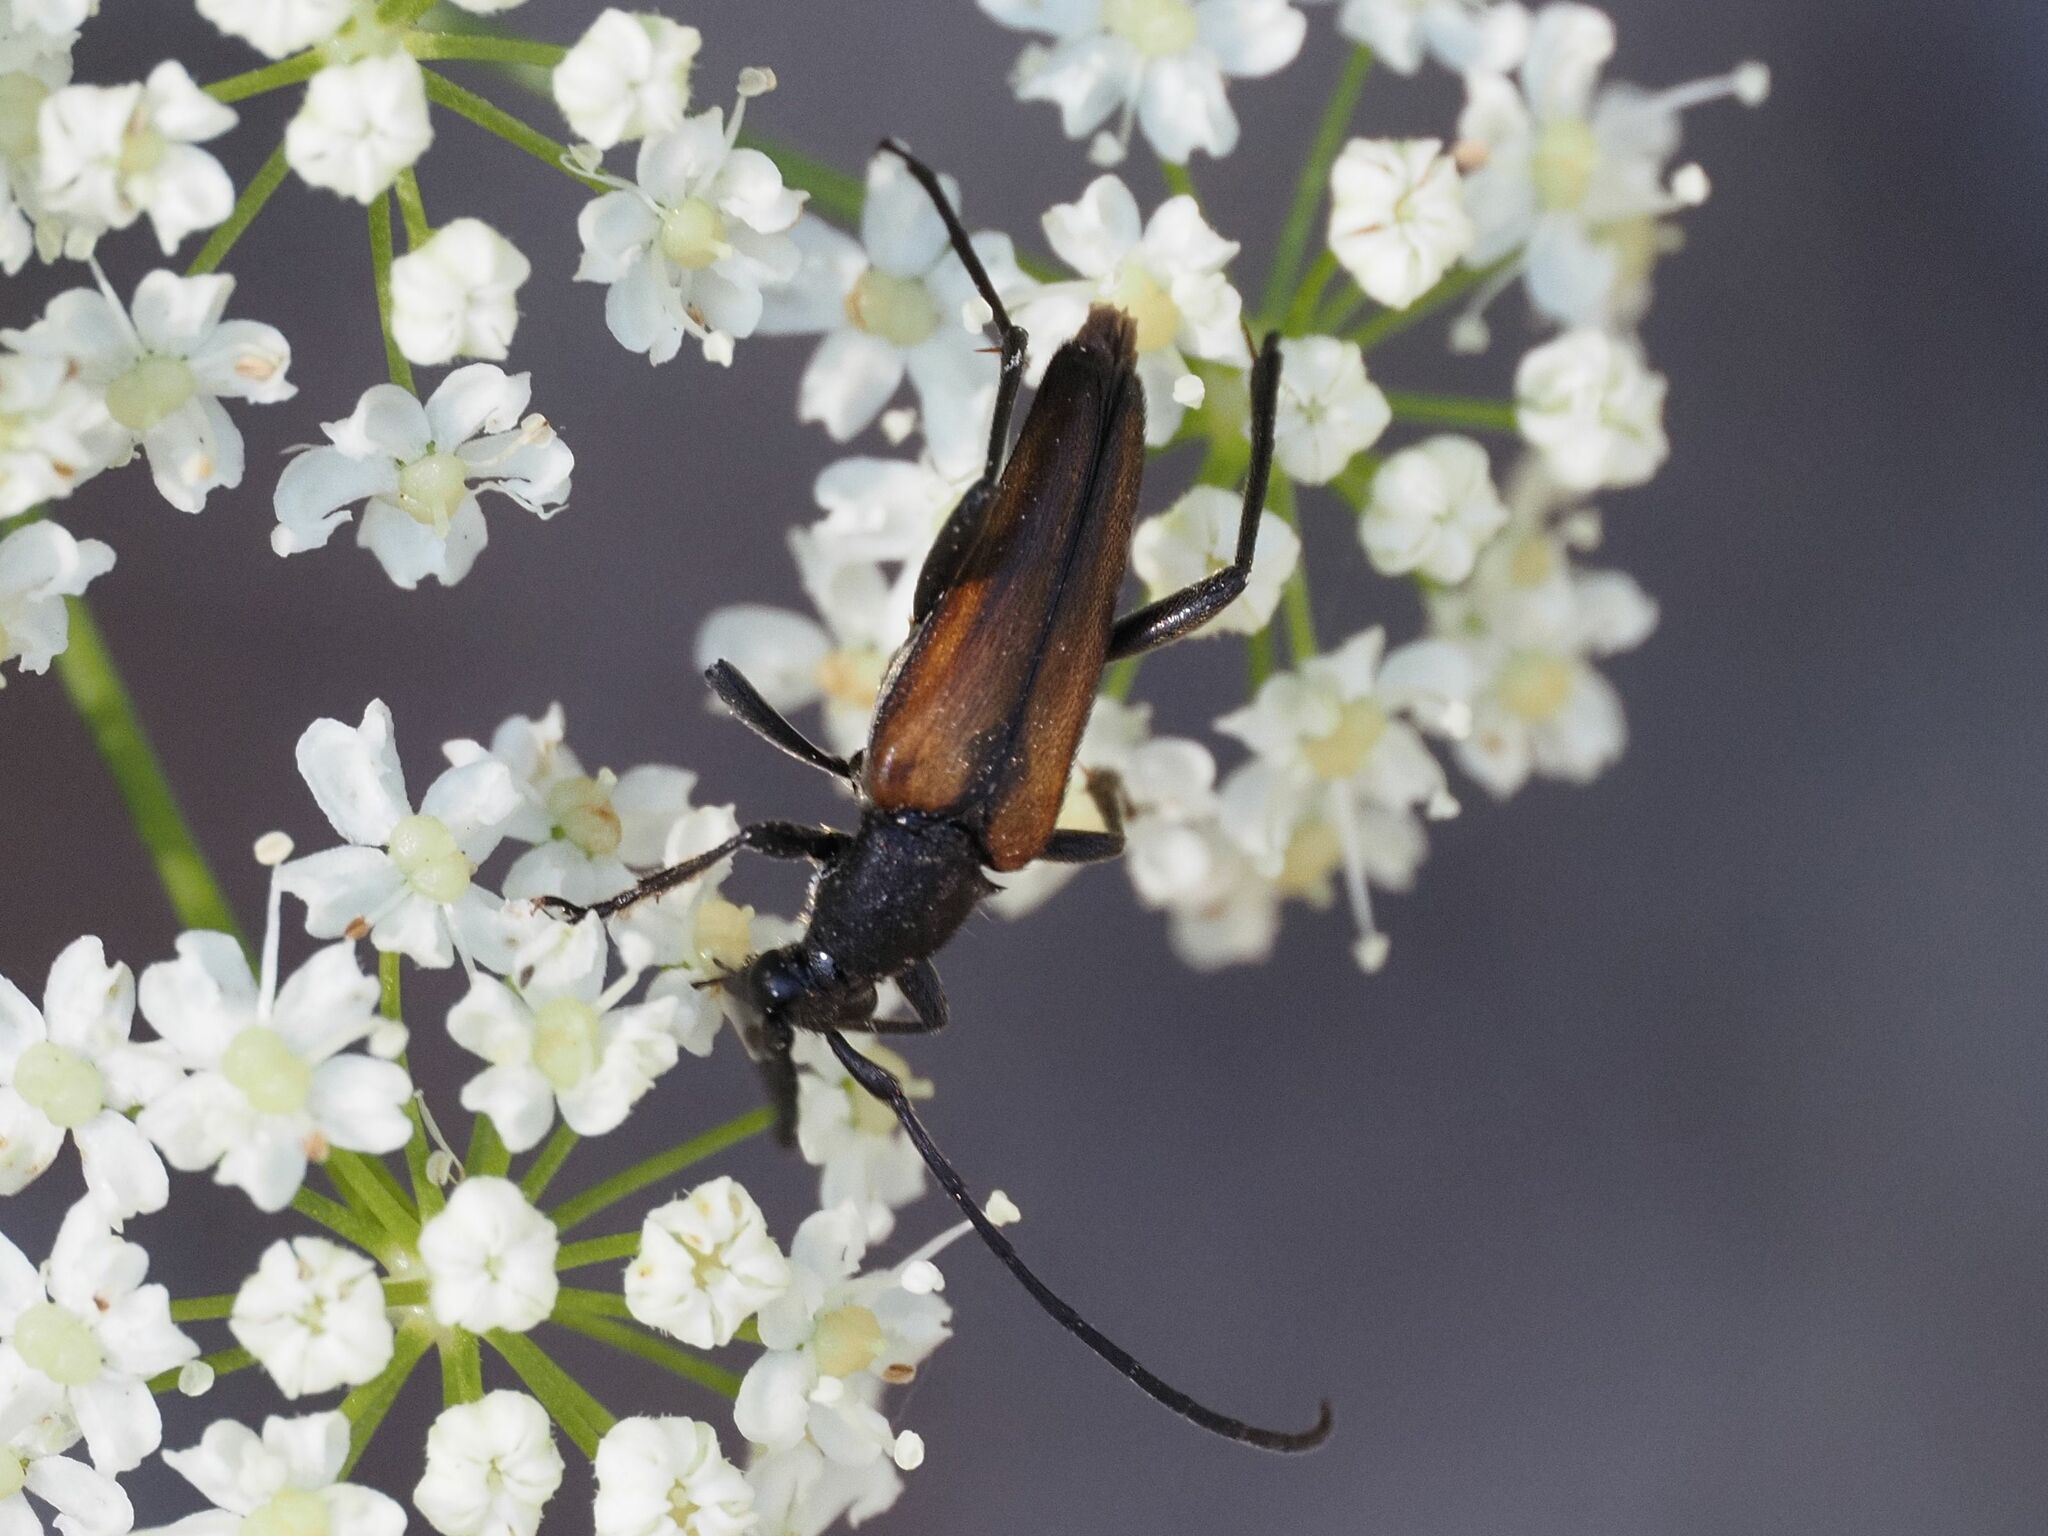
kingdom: Animalia
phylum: Arthropoda
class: Insecta
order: Coleoptera
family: Cerambycidae
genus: Stenurella
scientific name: Stenurella melanura
